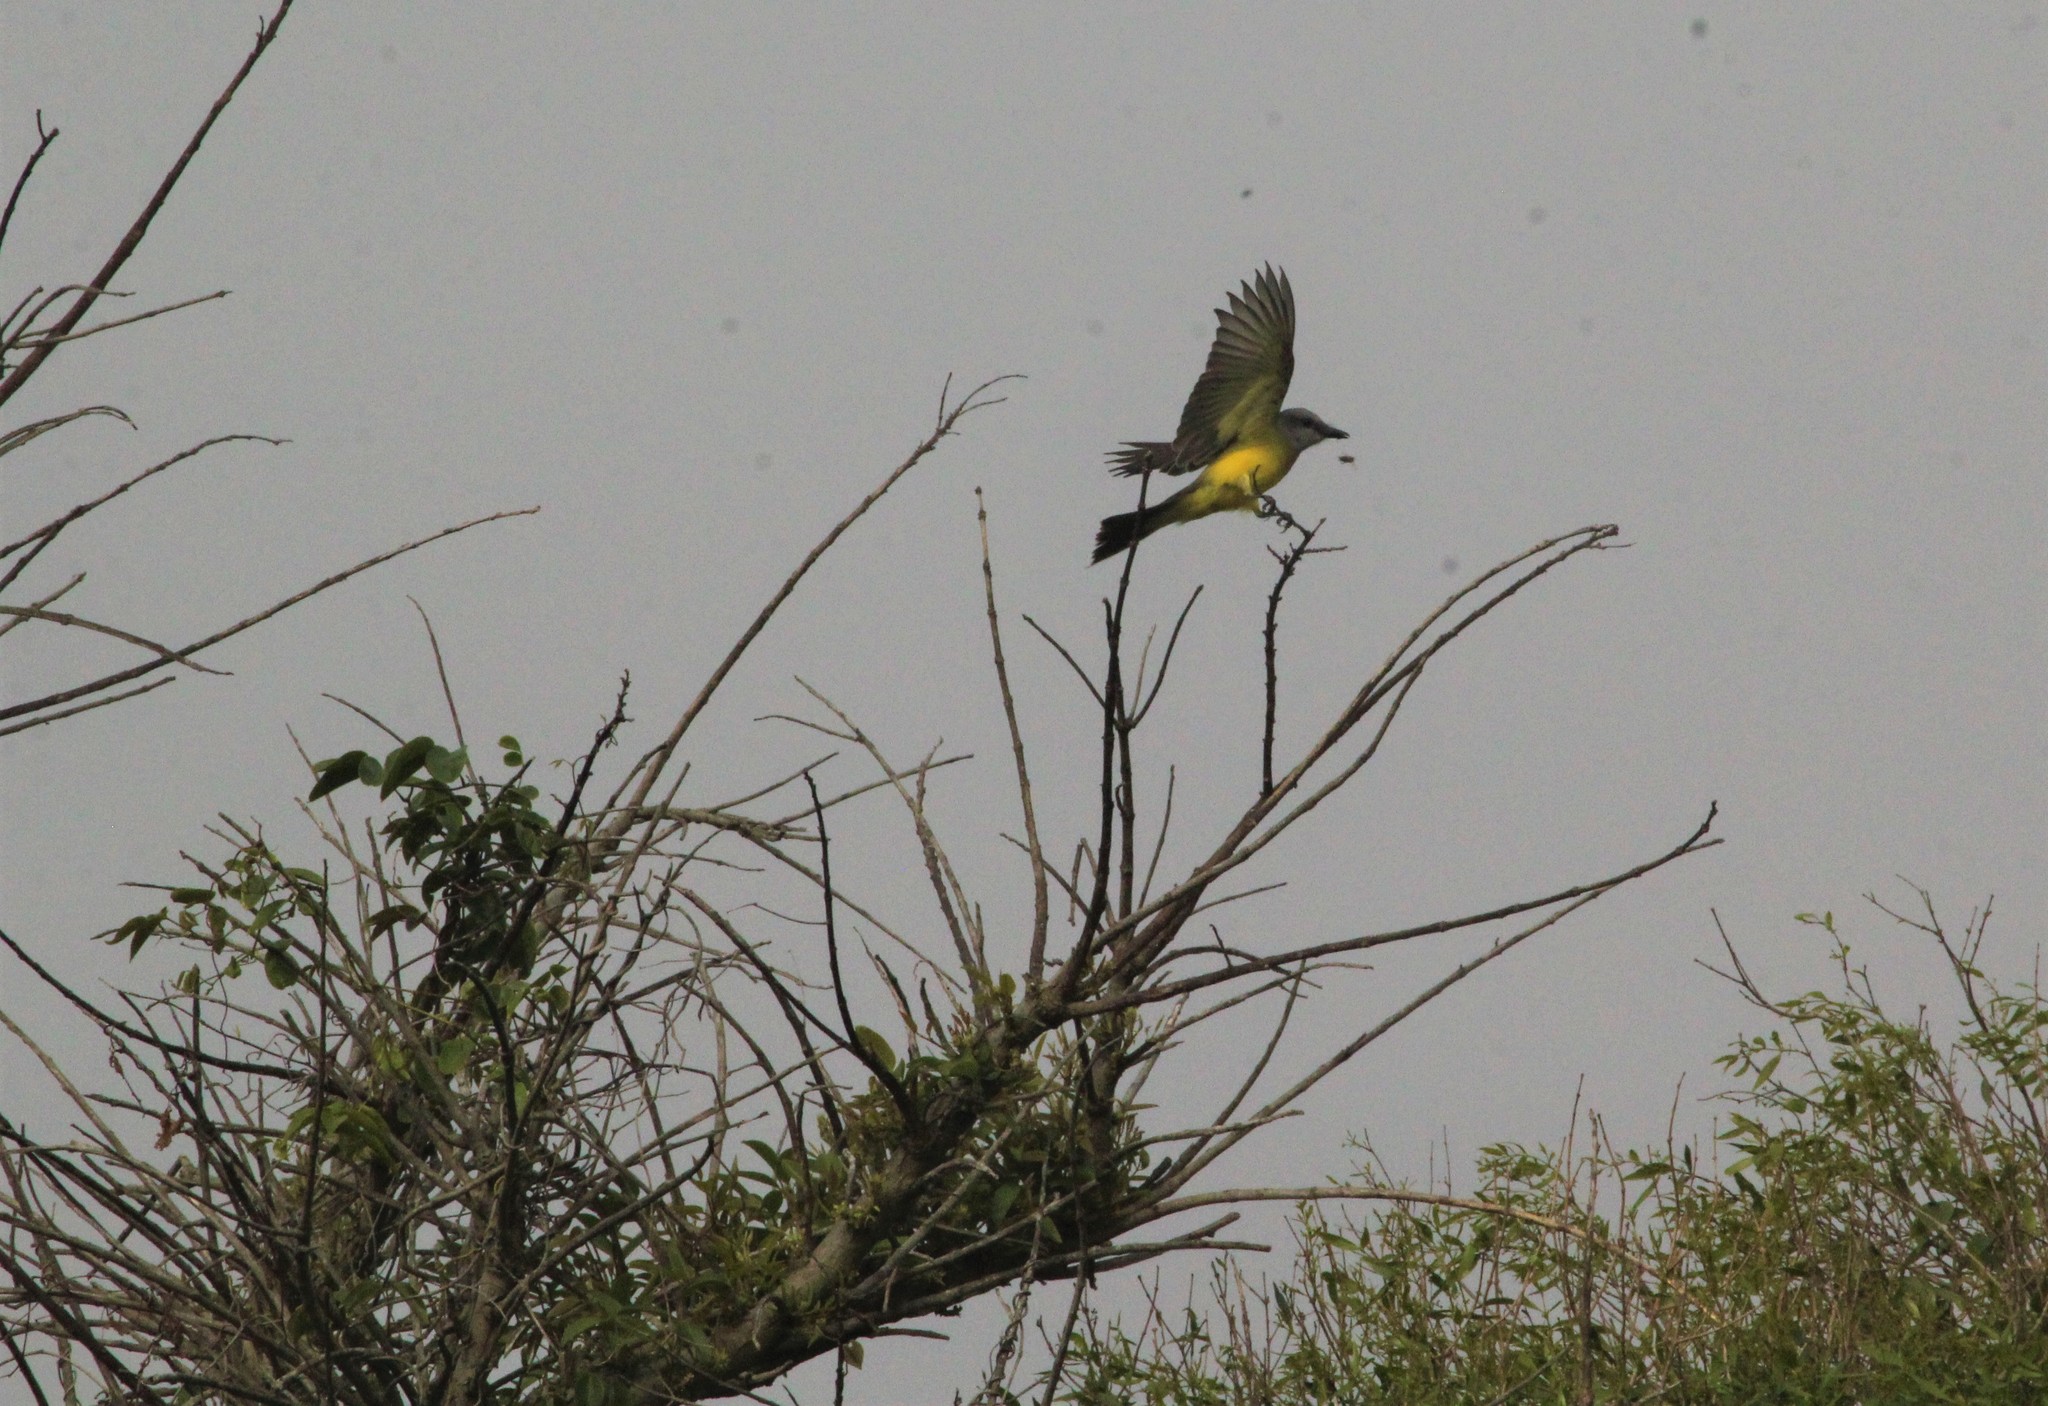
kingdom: Animalia
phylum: Chordata
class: Aves
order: Passeriformes
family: Tyrannidae
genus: Tyrannus
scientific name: Tyrannus melancholicus
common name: Tropical kingbird
